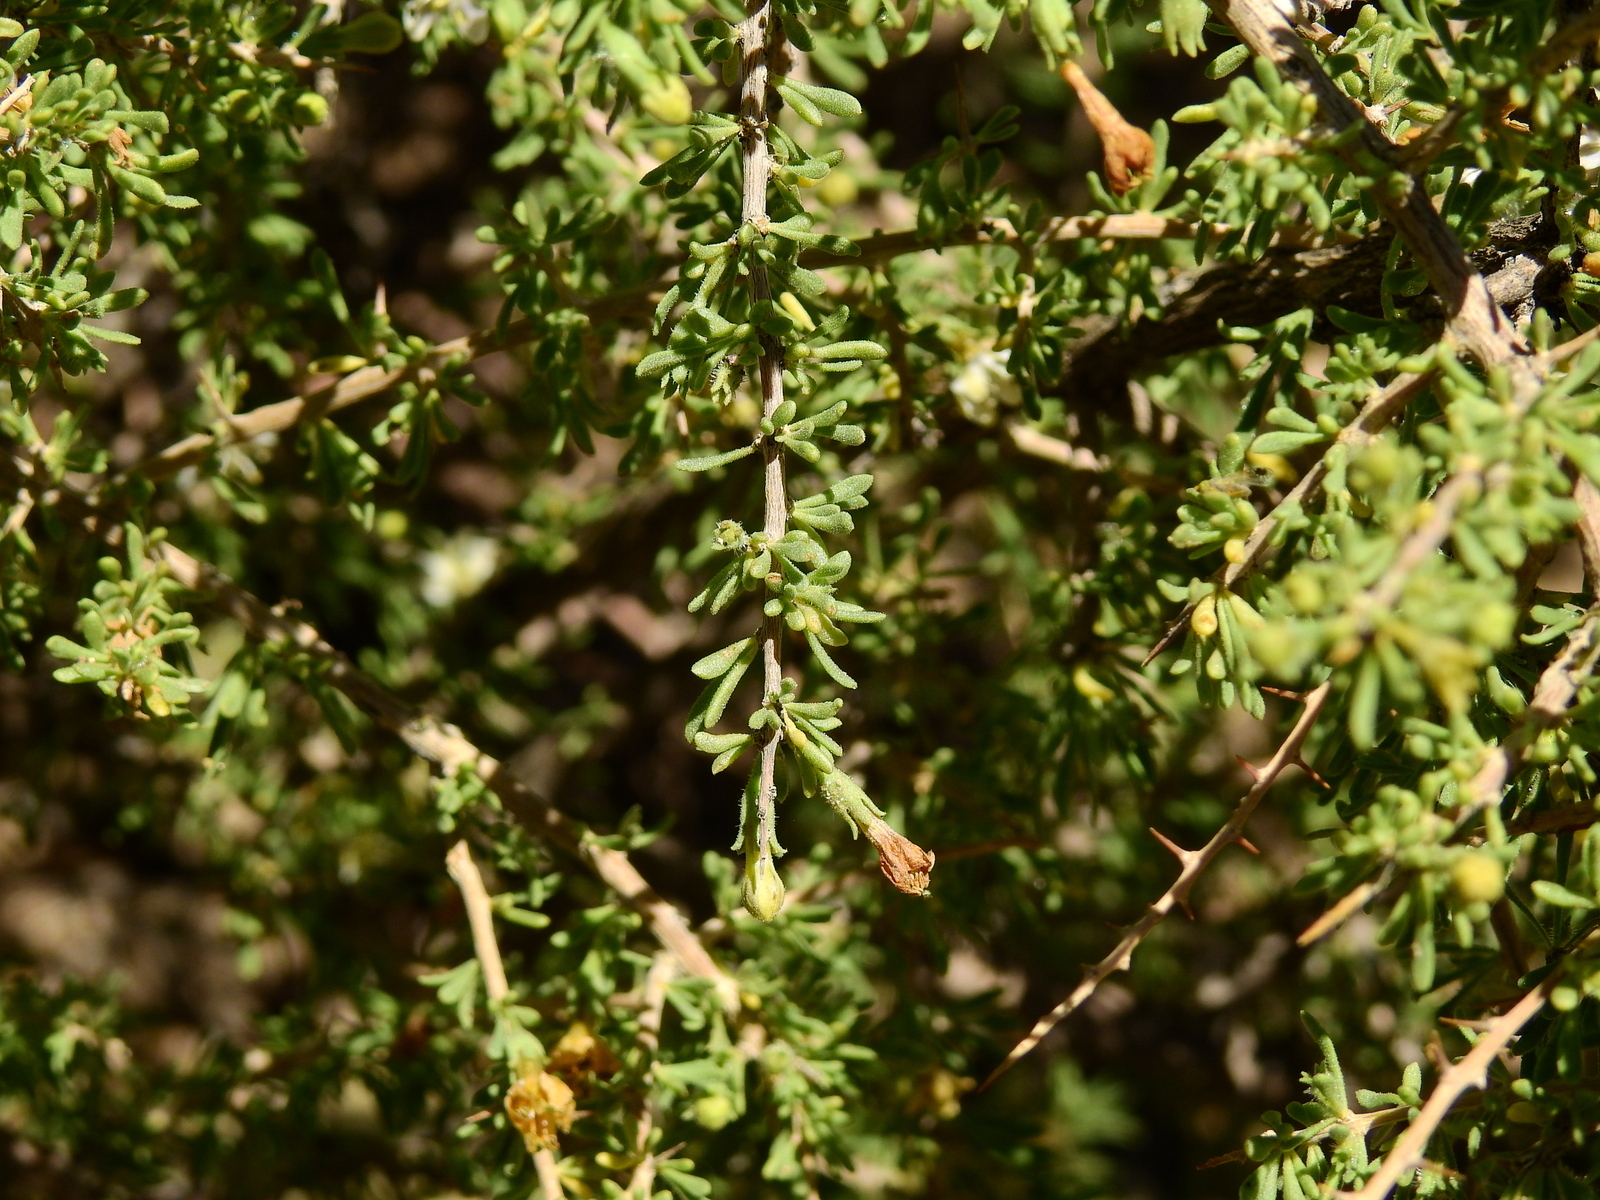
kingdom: Plantae
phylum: Tracheophyta
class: Magnoliopsida
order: Solanales
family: Solanaceae
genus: Lycium
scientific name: Lycium tenuispinosum
